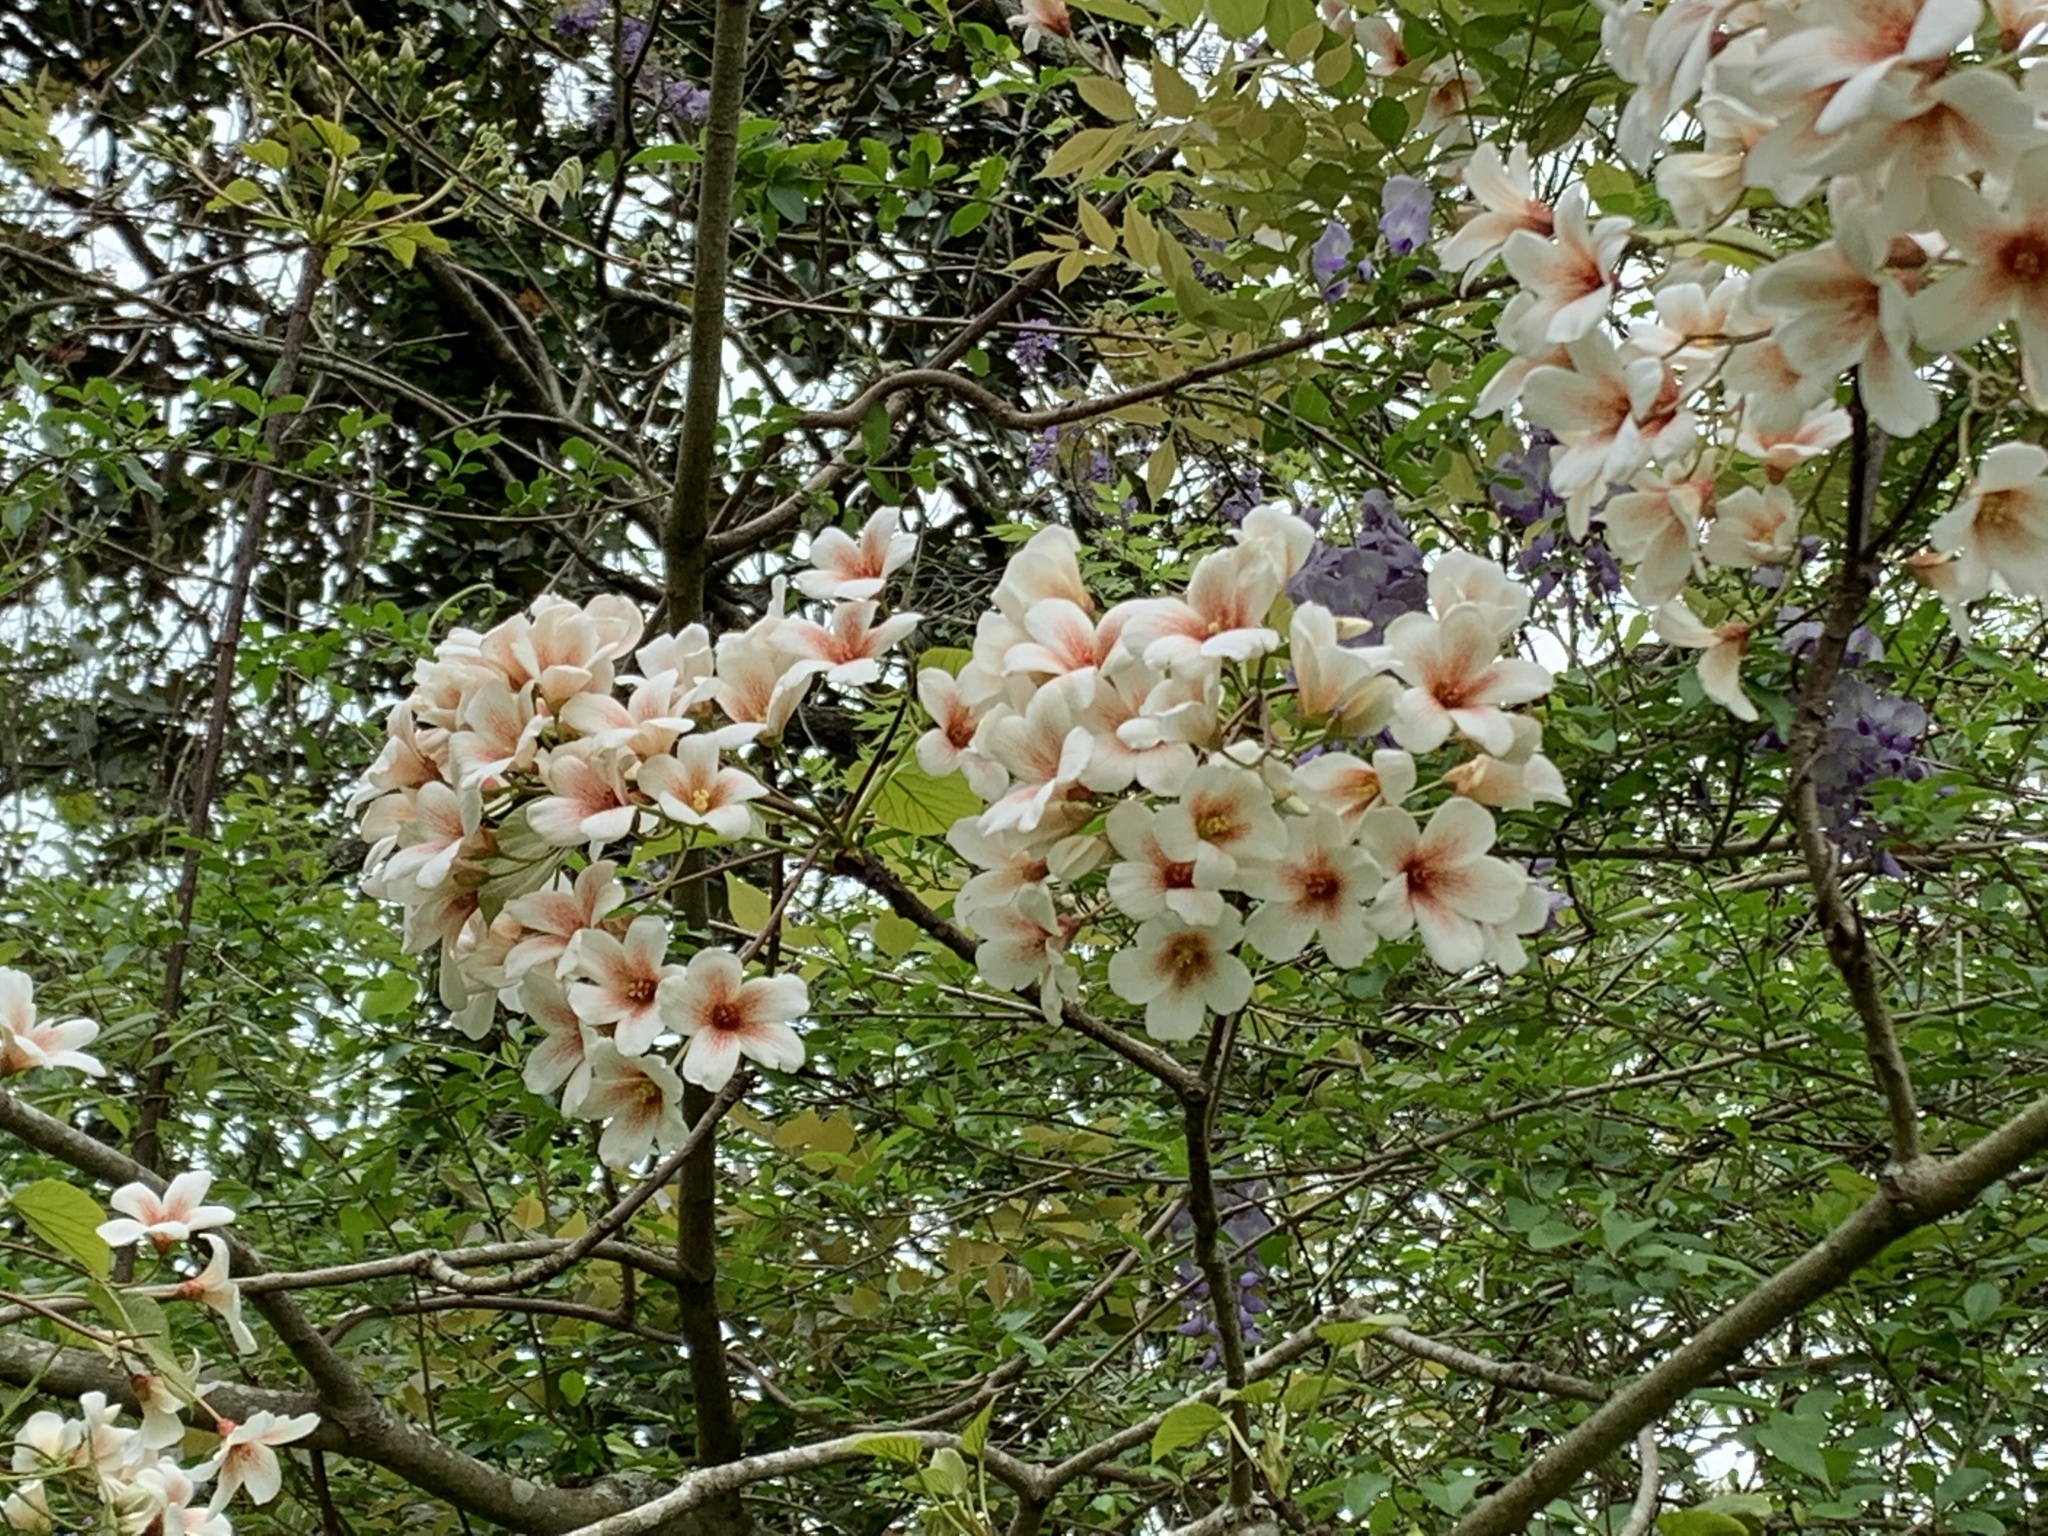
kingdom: Plantae
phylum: Tracheophyta
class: Magnoliopsida
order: Malpighiales
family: Euphorbiaceae
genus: Vernicia
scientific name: Vernicia fordii
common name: Tungoil tree
